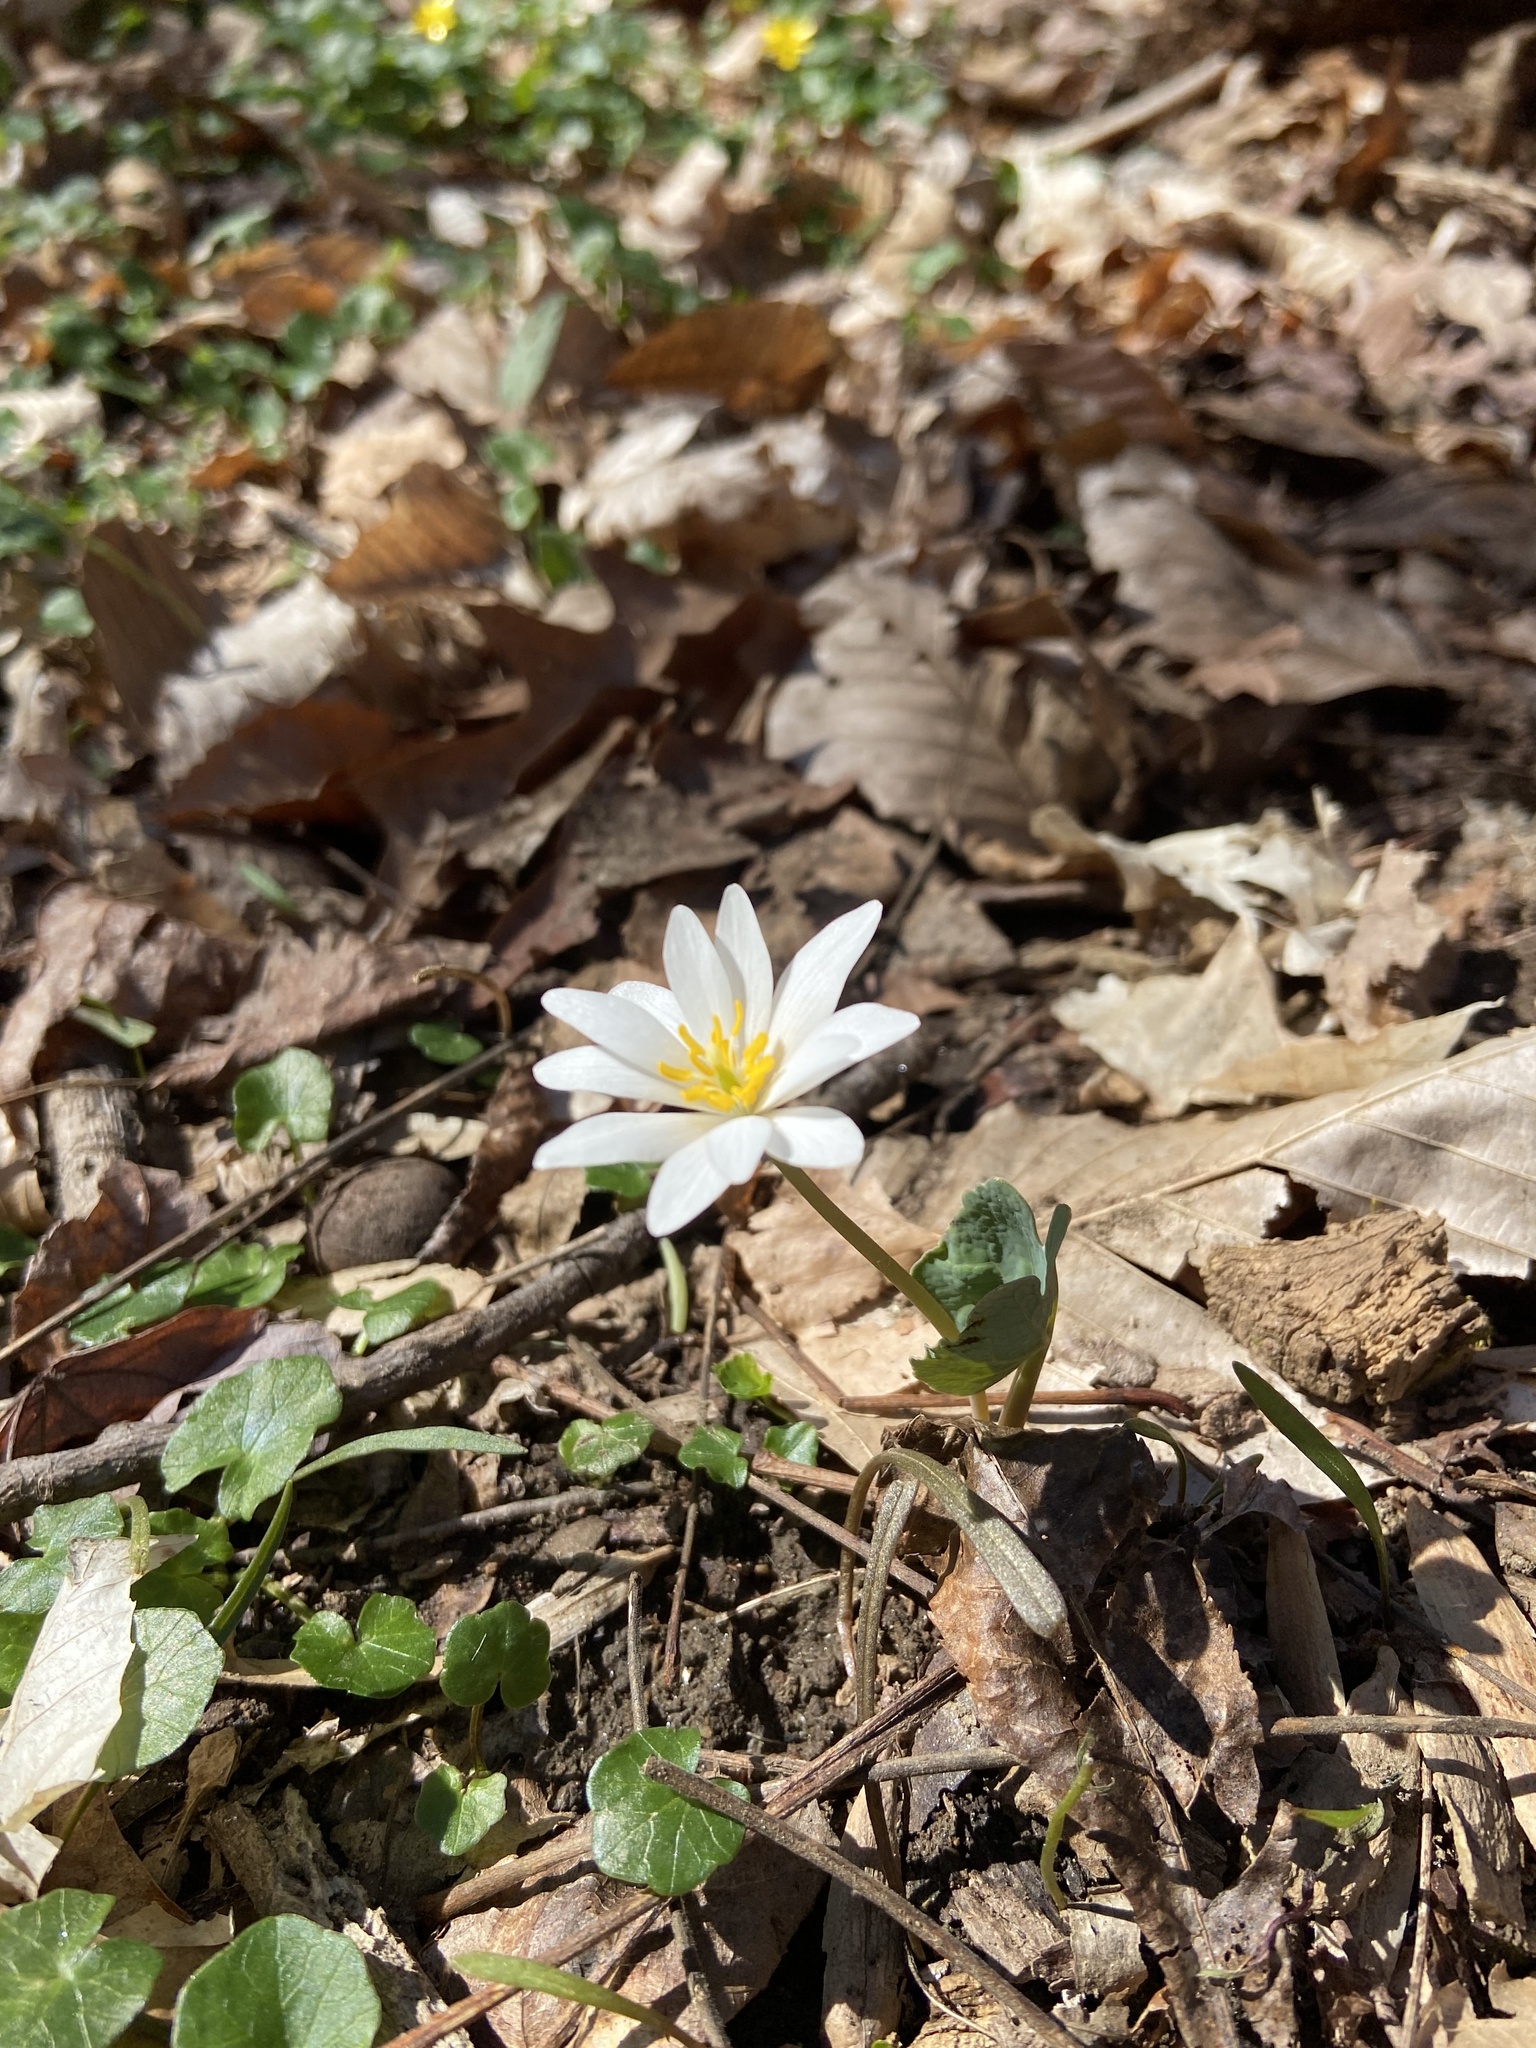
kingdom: Plantae
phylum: Tracheophyta
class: Magnoliopsida
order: Ranunculales
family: Papaveraceae
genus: Sanguinaria
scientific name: Sanguinaria canadensis
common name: Bloodroot
